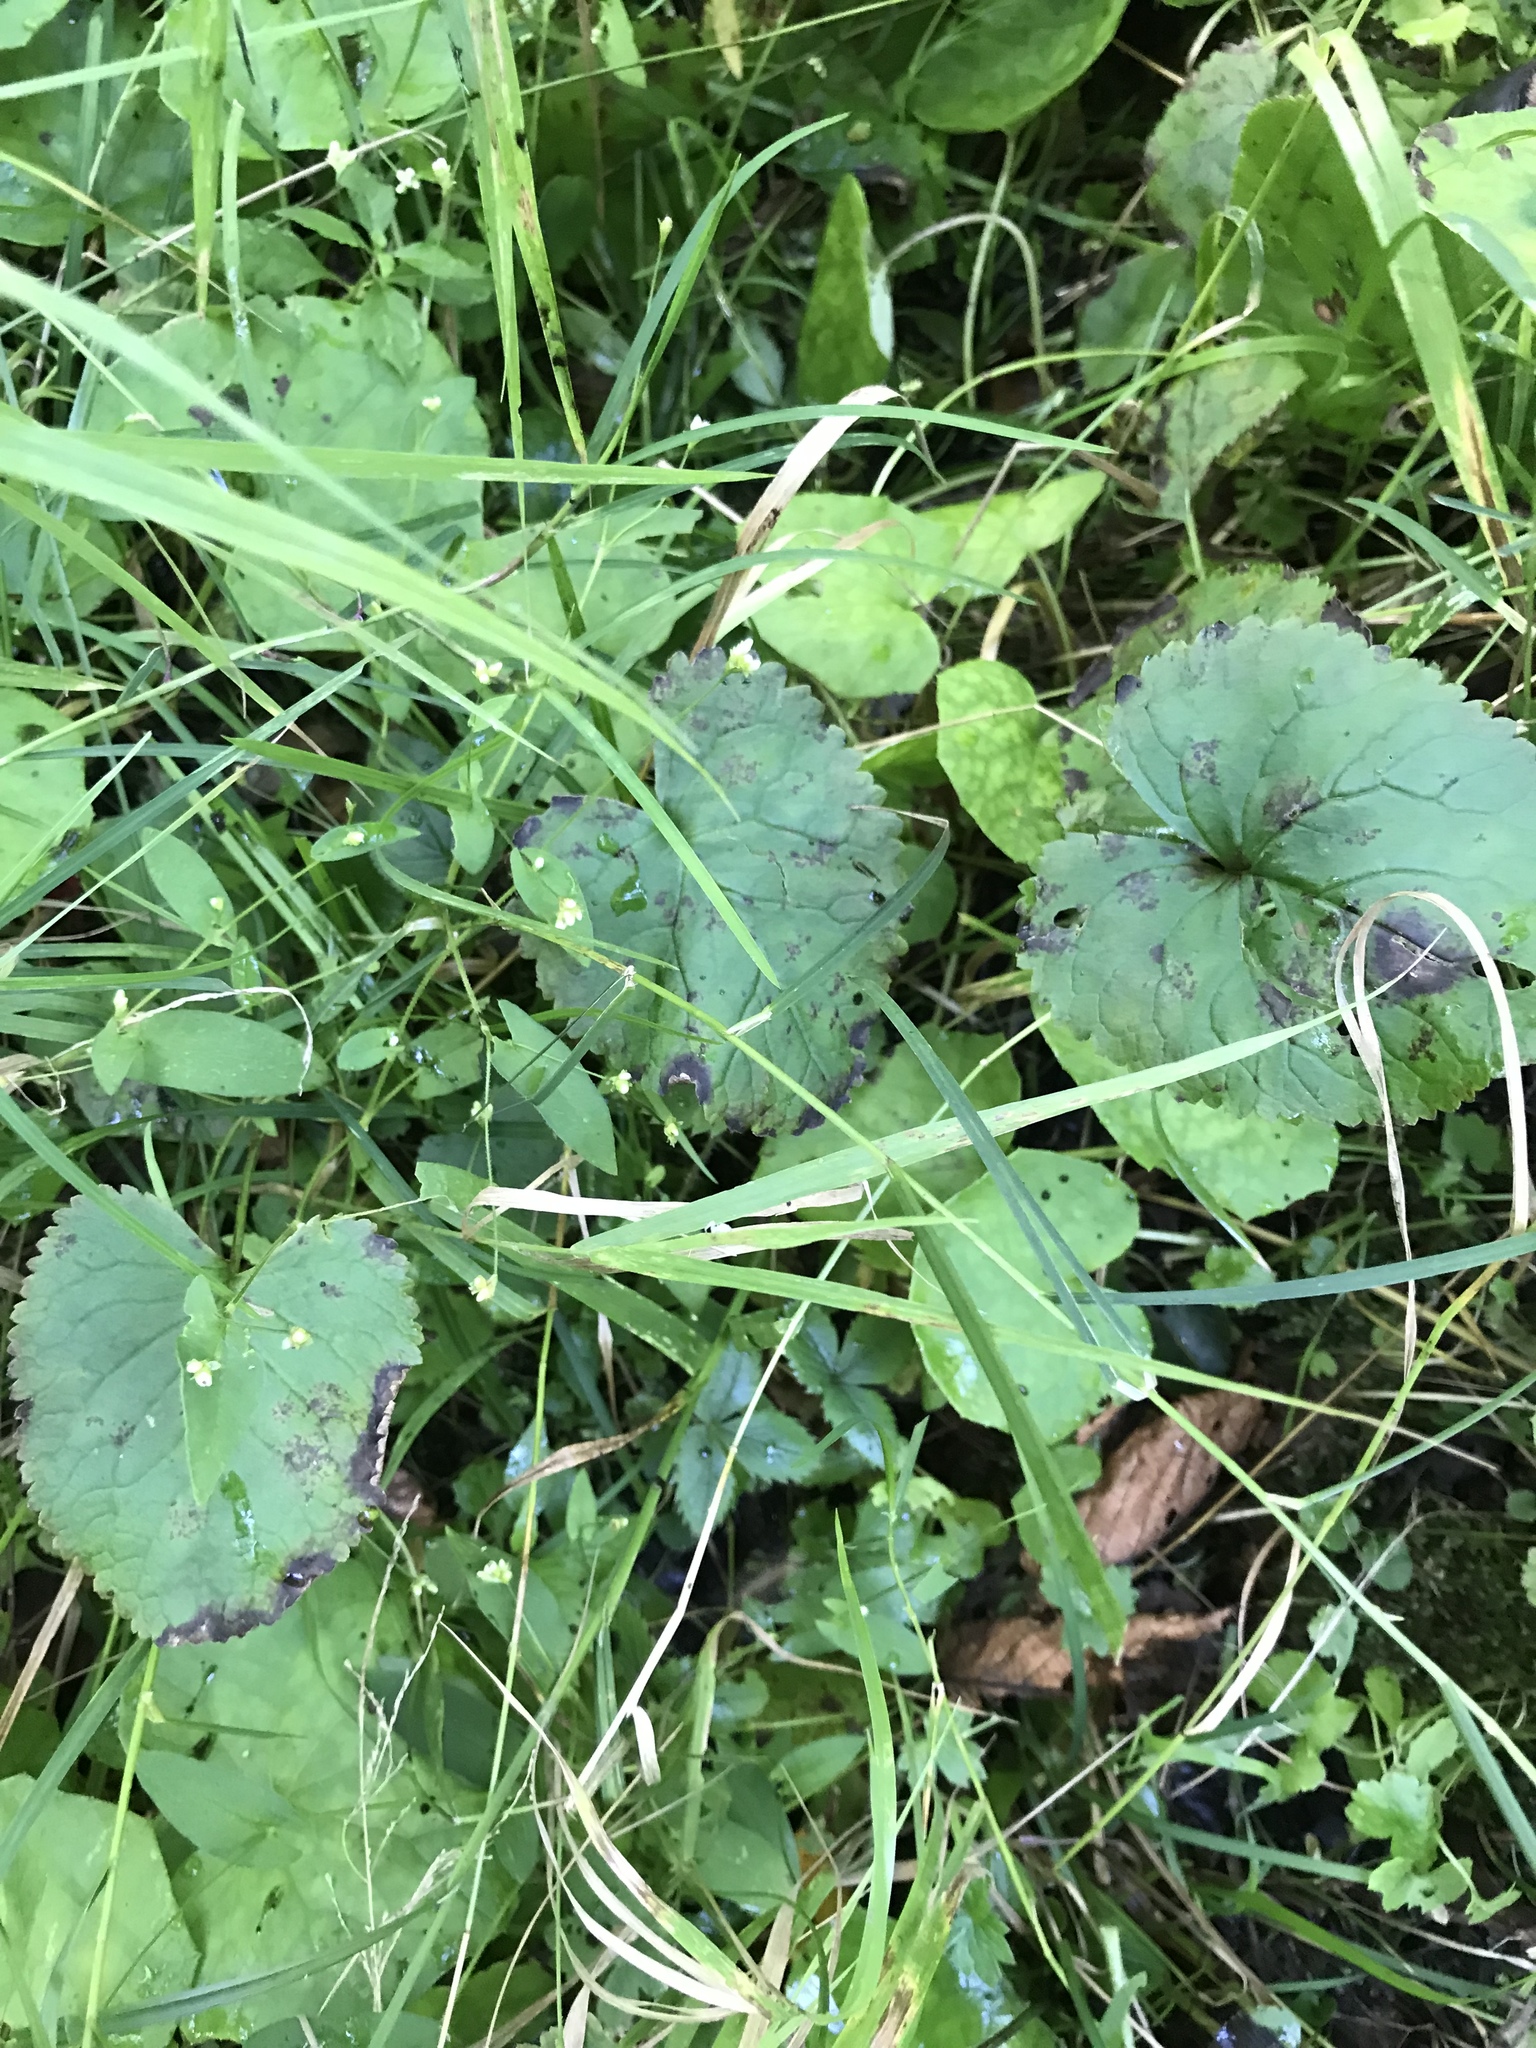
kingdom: Plantae
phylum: Tracheophyta
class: Magnoliopsida
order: Asterales
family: Asteraceae
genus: Packera
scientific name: Packera aurea
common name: Golden groundsel
